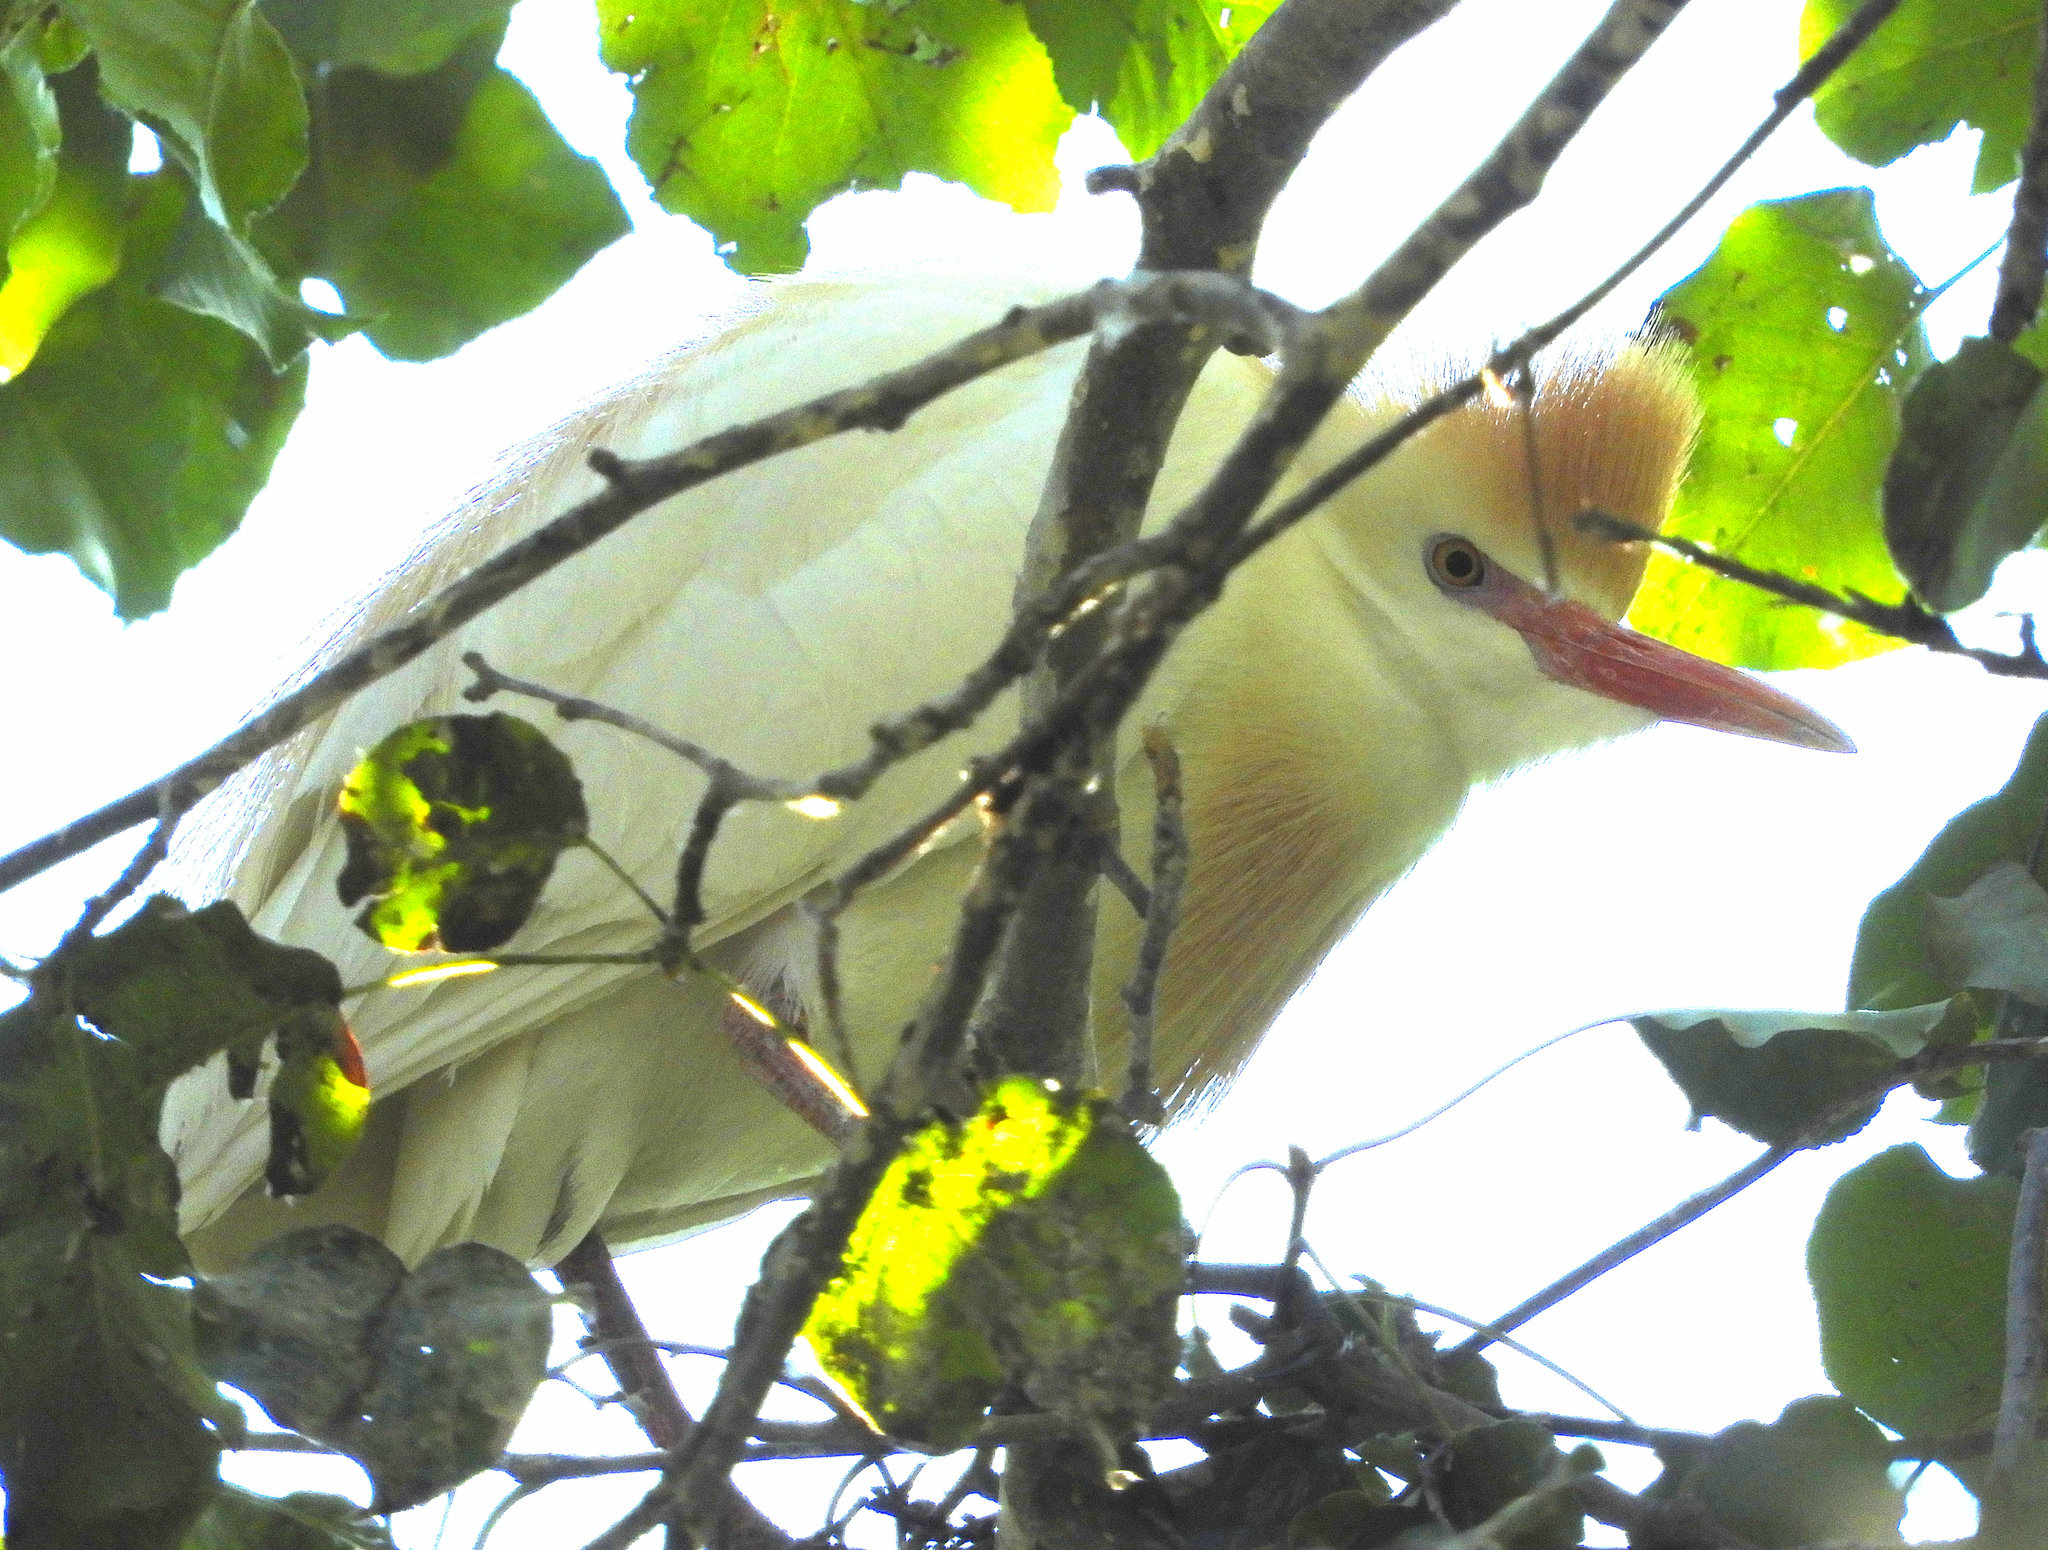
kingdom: Animalia
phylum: Chordata
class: Aves
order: Pelecaniformes
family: Ardeidae
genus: Bubulcus
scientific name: Bubulcus ibis
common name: Cattle egret
